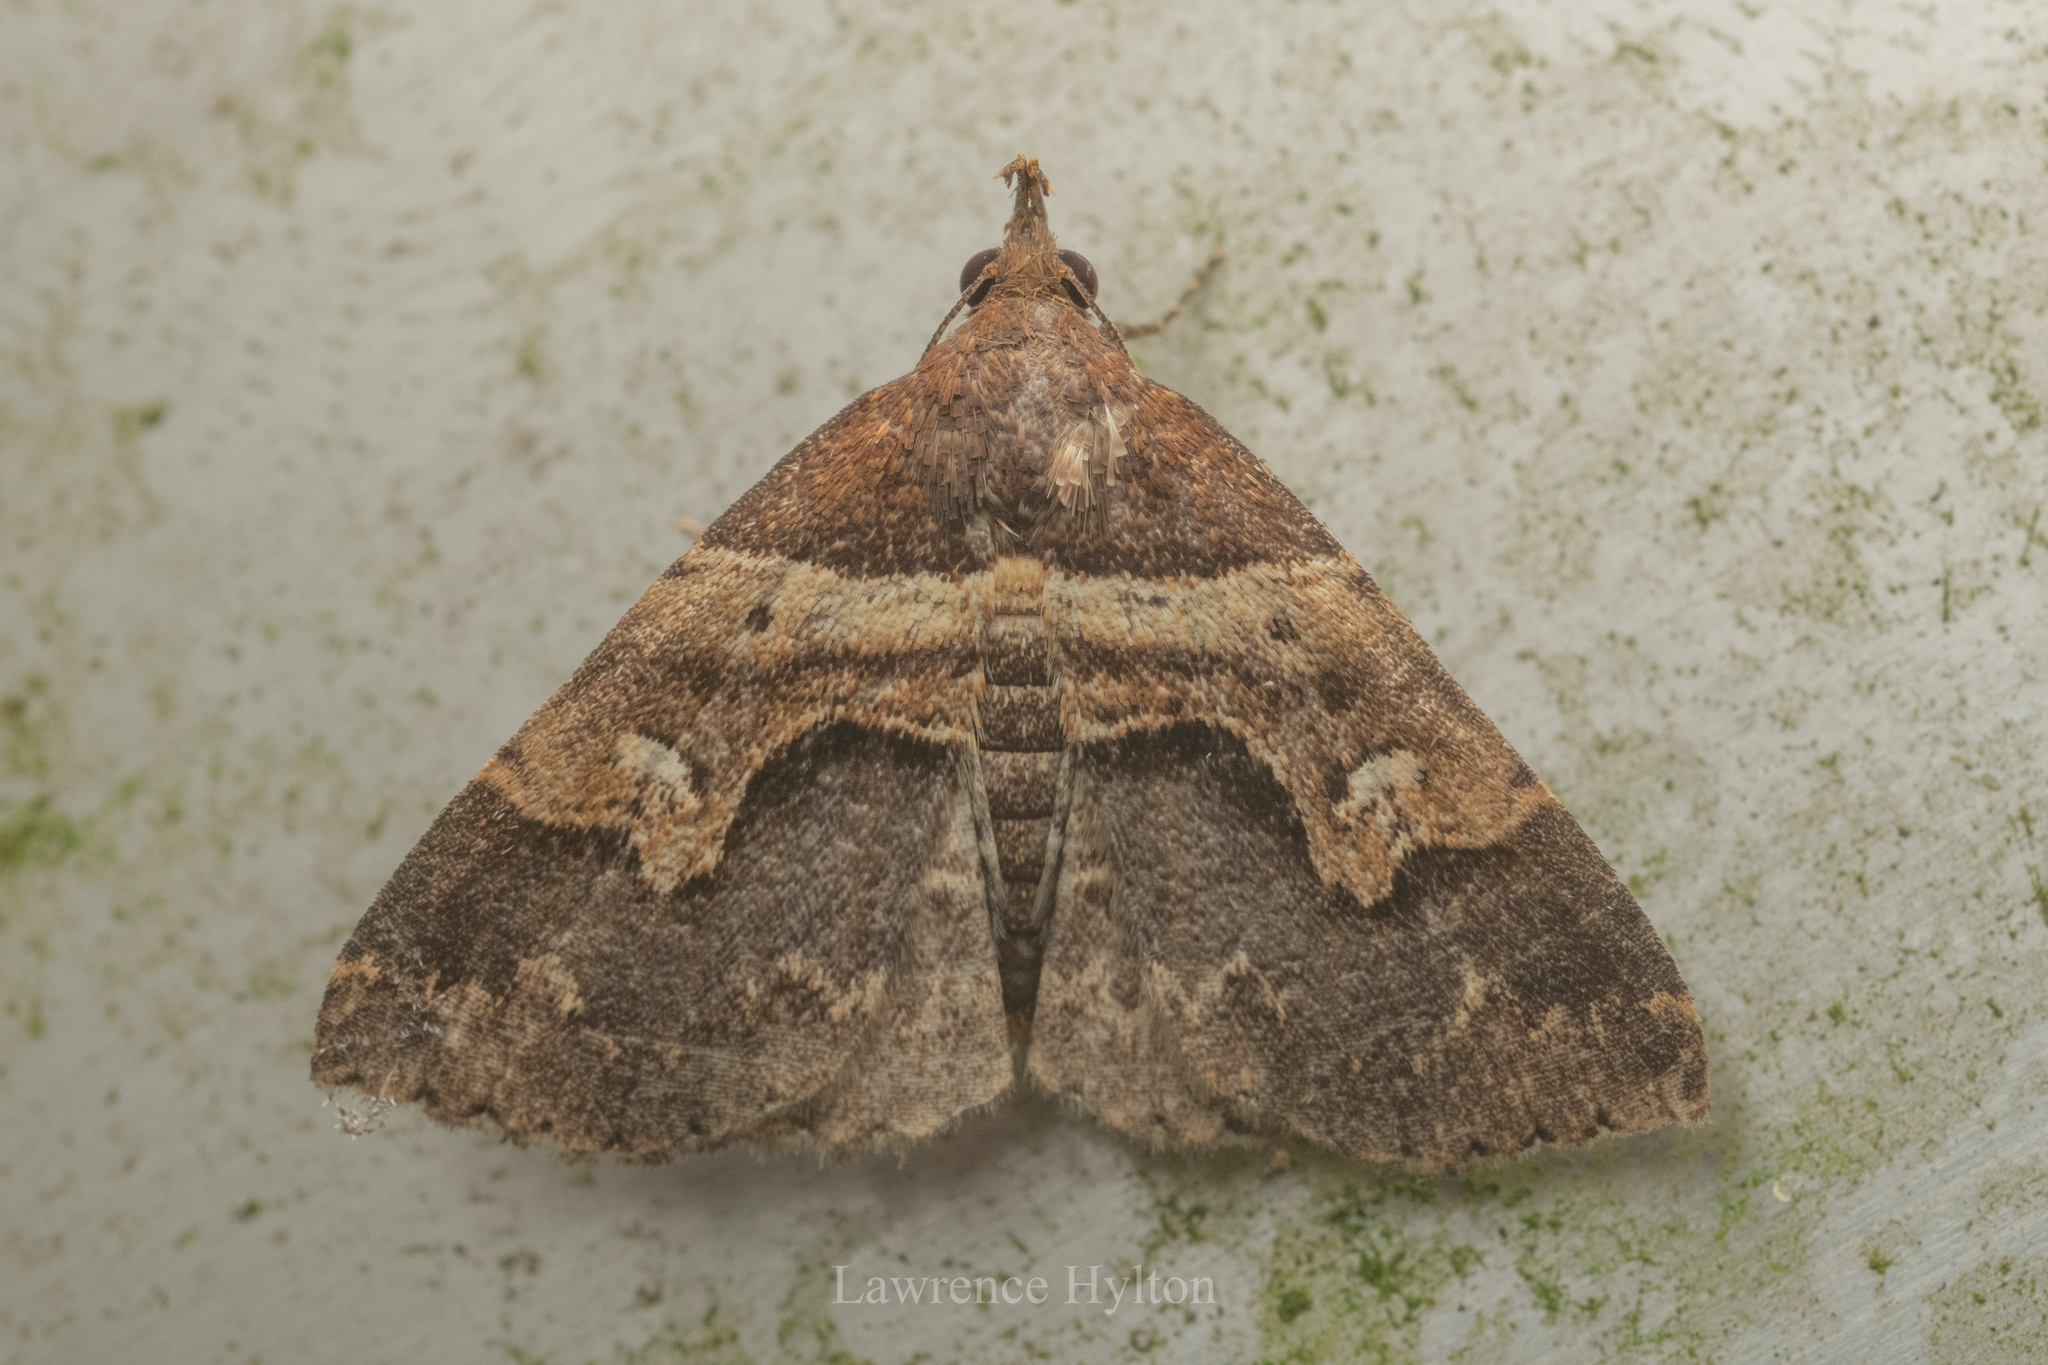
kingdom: Animalia
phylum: Arthropoda
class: Insecta
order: Lepidoptera
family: Erebidae
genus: Bertula
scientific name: Bertula abjudicalis
